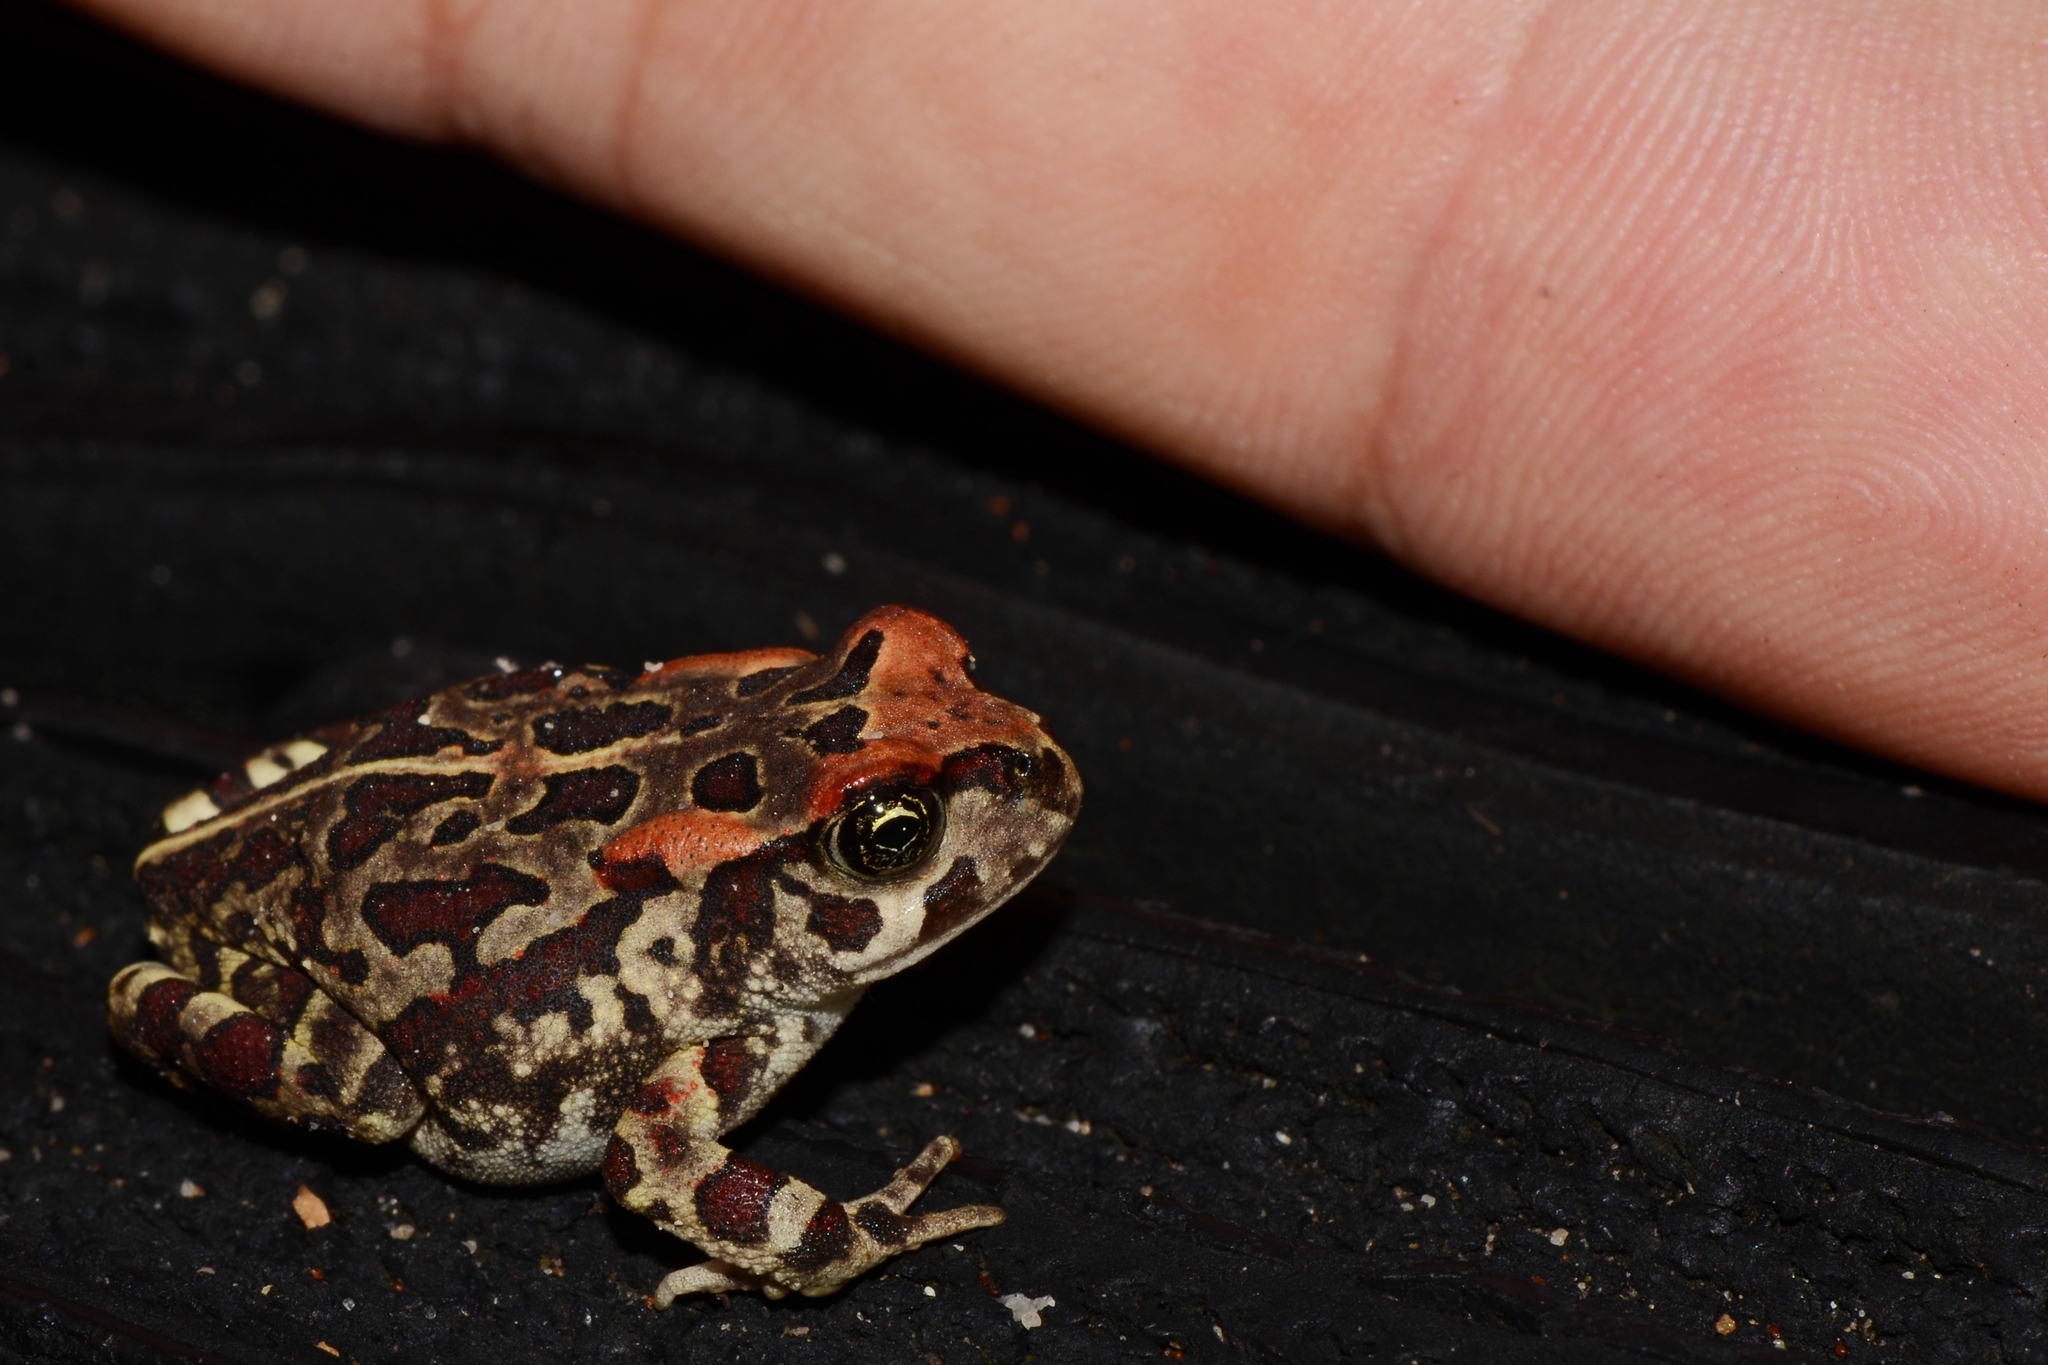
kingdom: Animalia
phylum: Chordata
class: Amphibia
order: Anura
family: Bufonidae
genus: Sclerophrys
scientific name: Sclerophrys pantherina
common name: Panther toad
